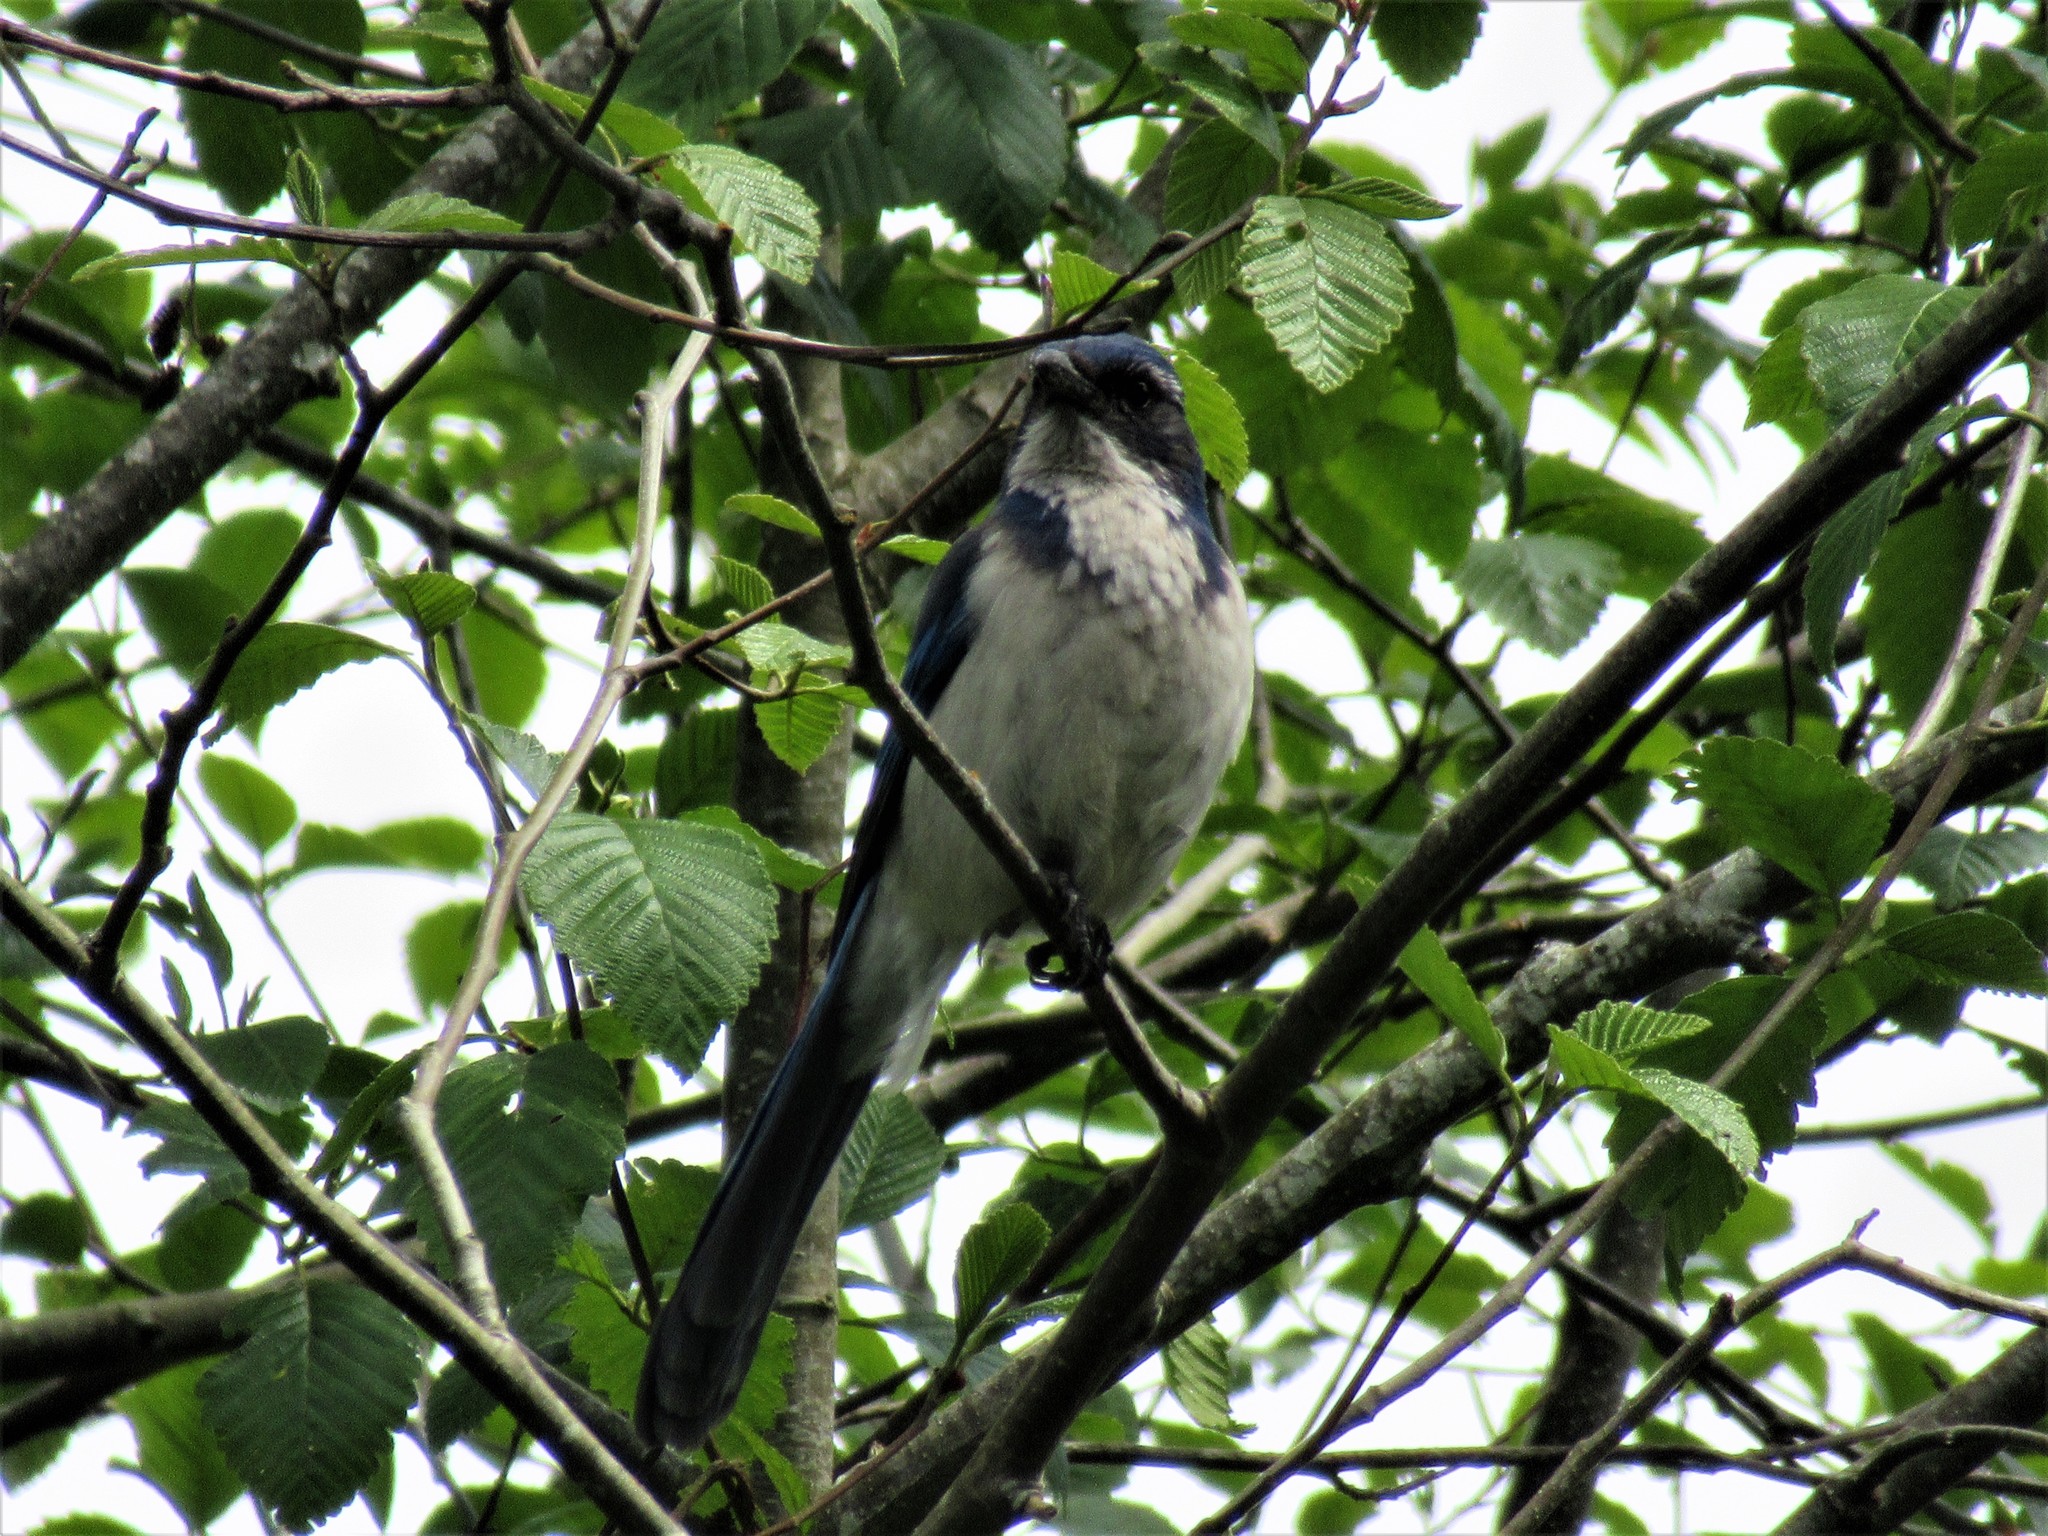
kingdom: Animalia
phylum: Chordata
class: Aves
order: Passeriformes
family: Corvidae
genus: Aphelocoma
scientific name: Aphelocoma californica
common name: California scrub-jay
